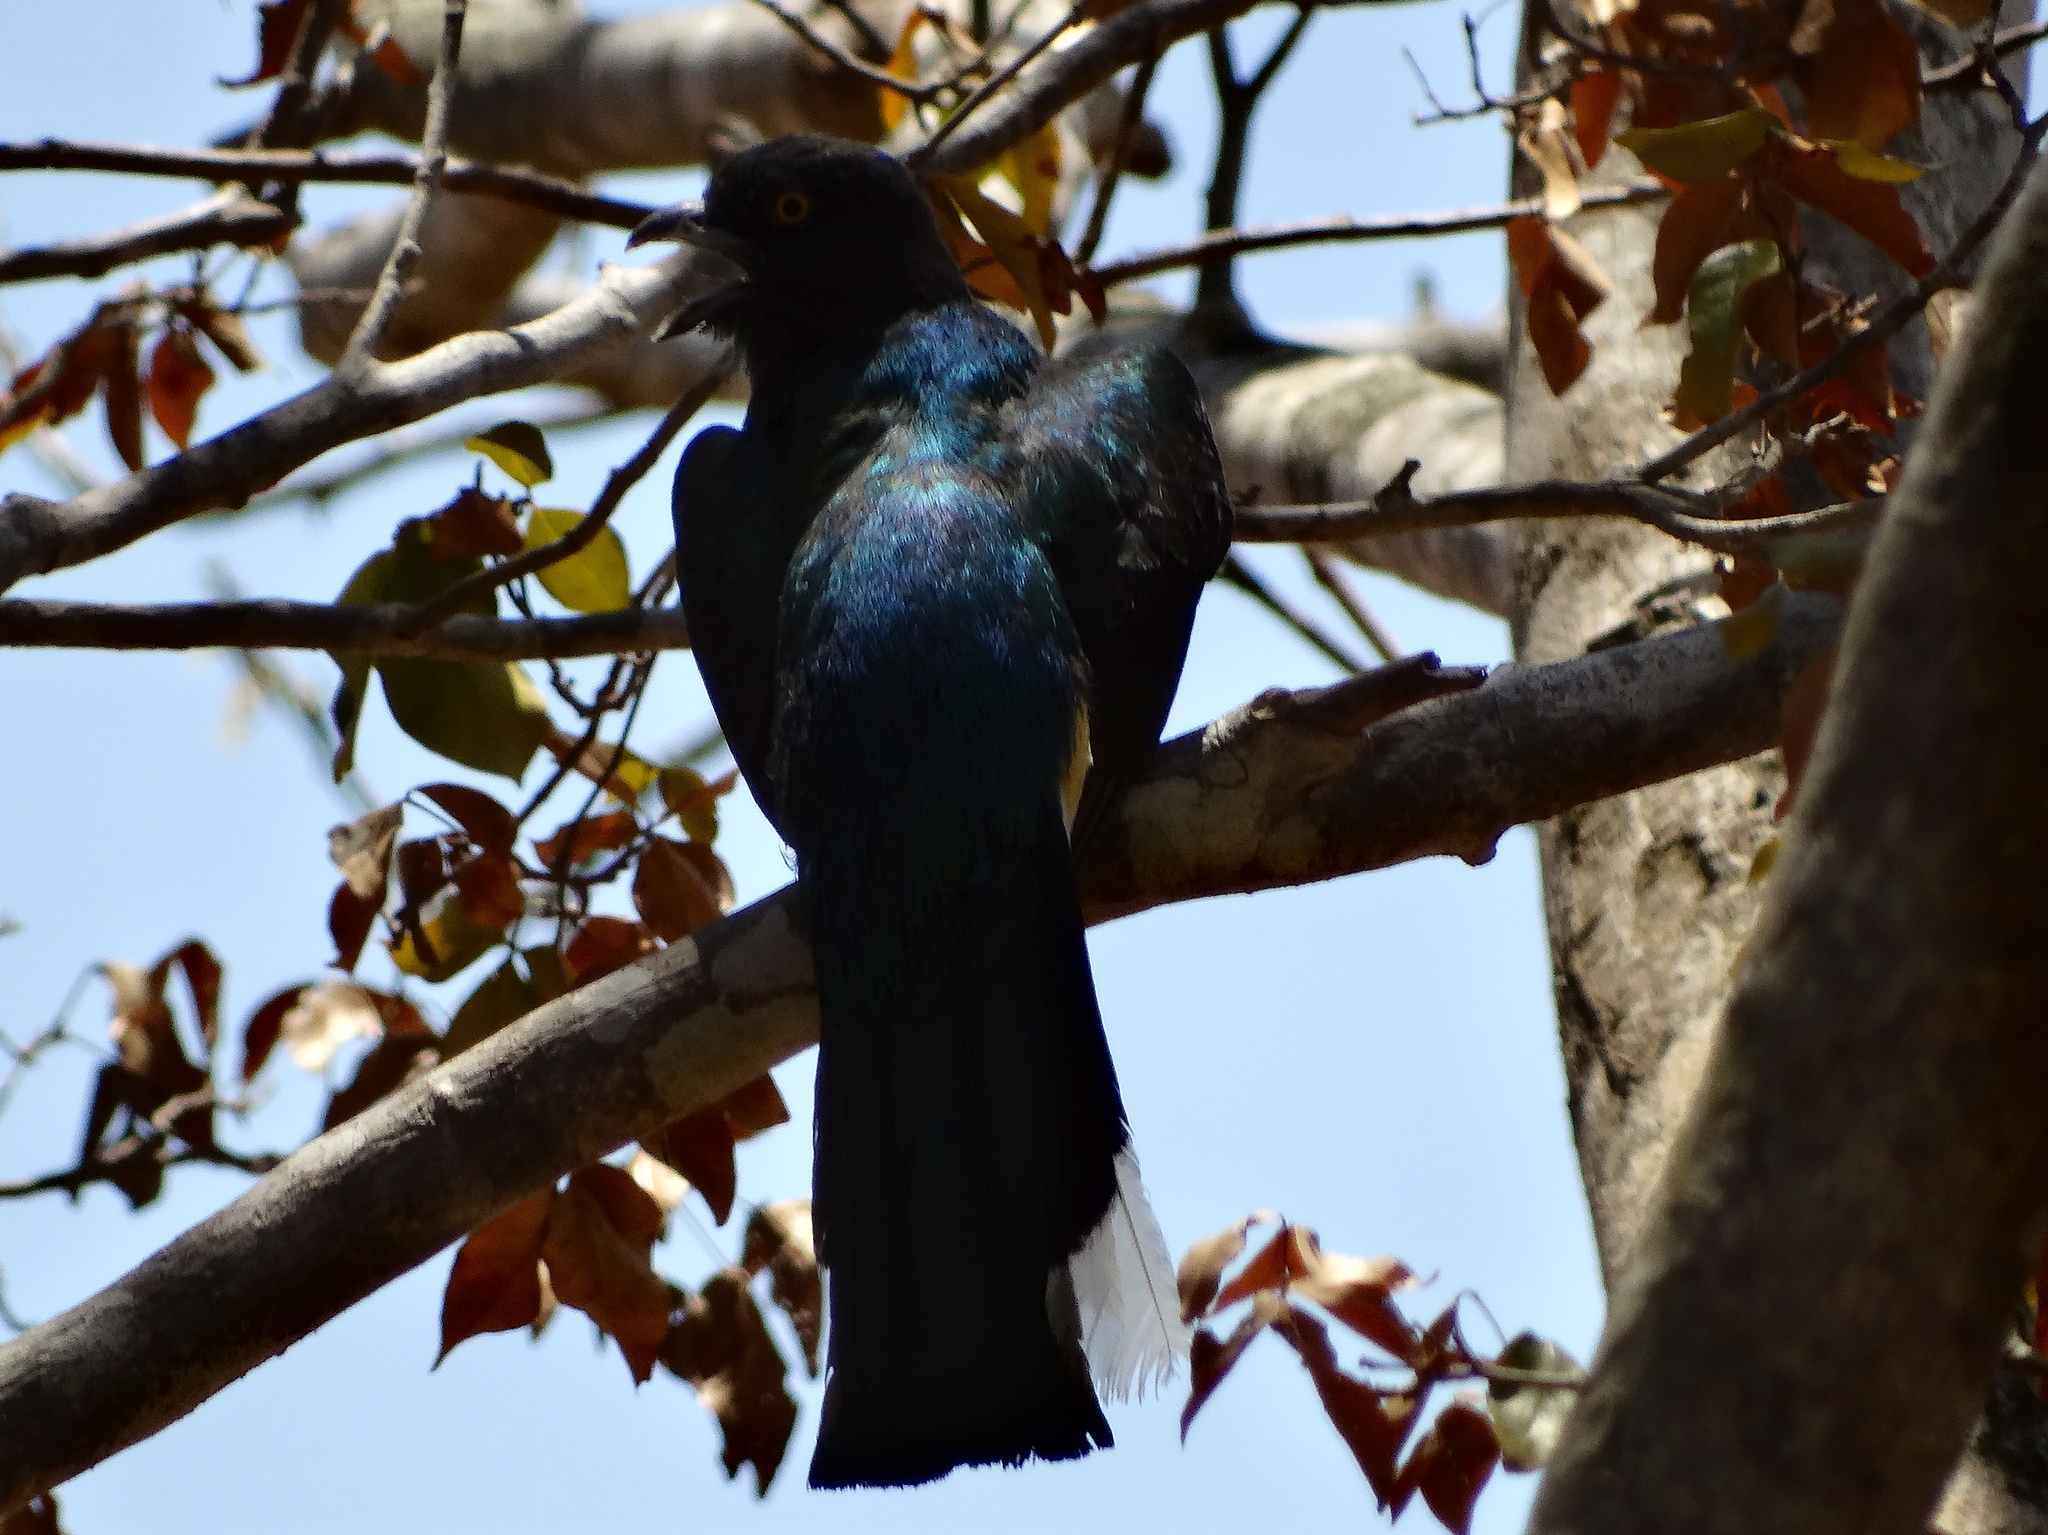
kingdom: Animalia
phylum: Chordata
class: Aves
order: Trogoniformes
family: Trogonidae
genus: Trogon
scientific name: Trogon citreolus
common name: Citreoline trogon
